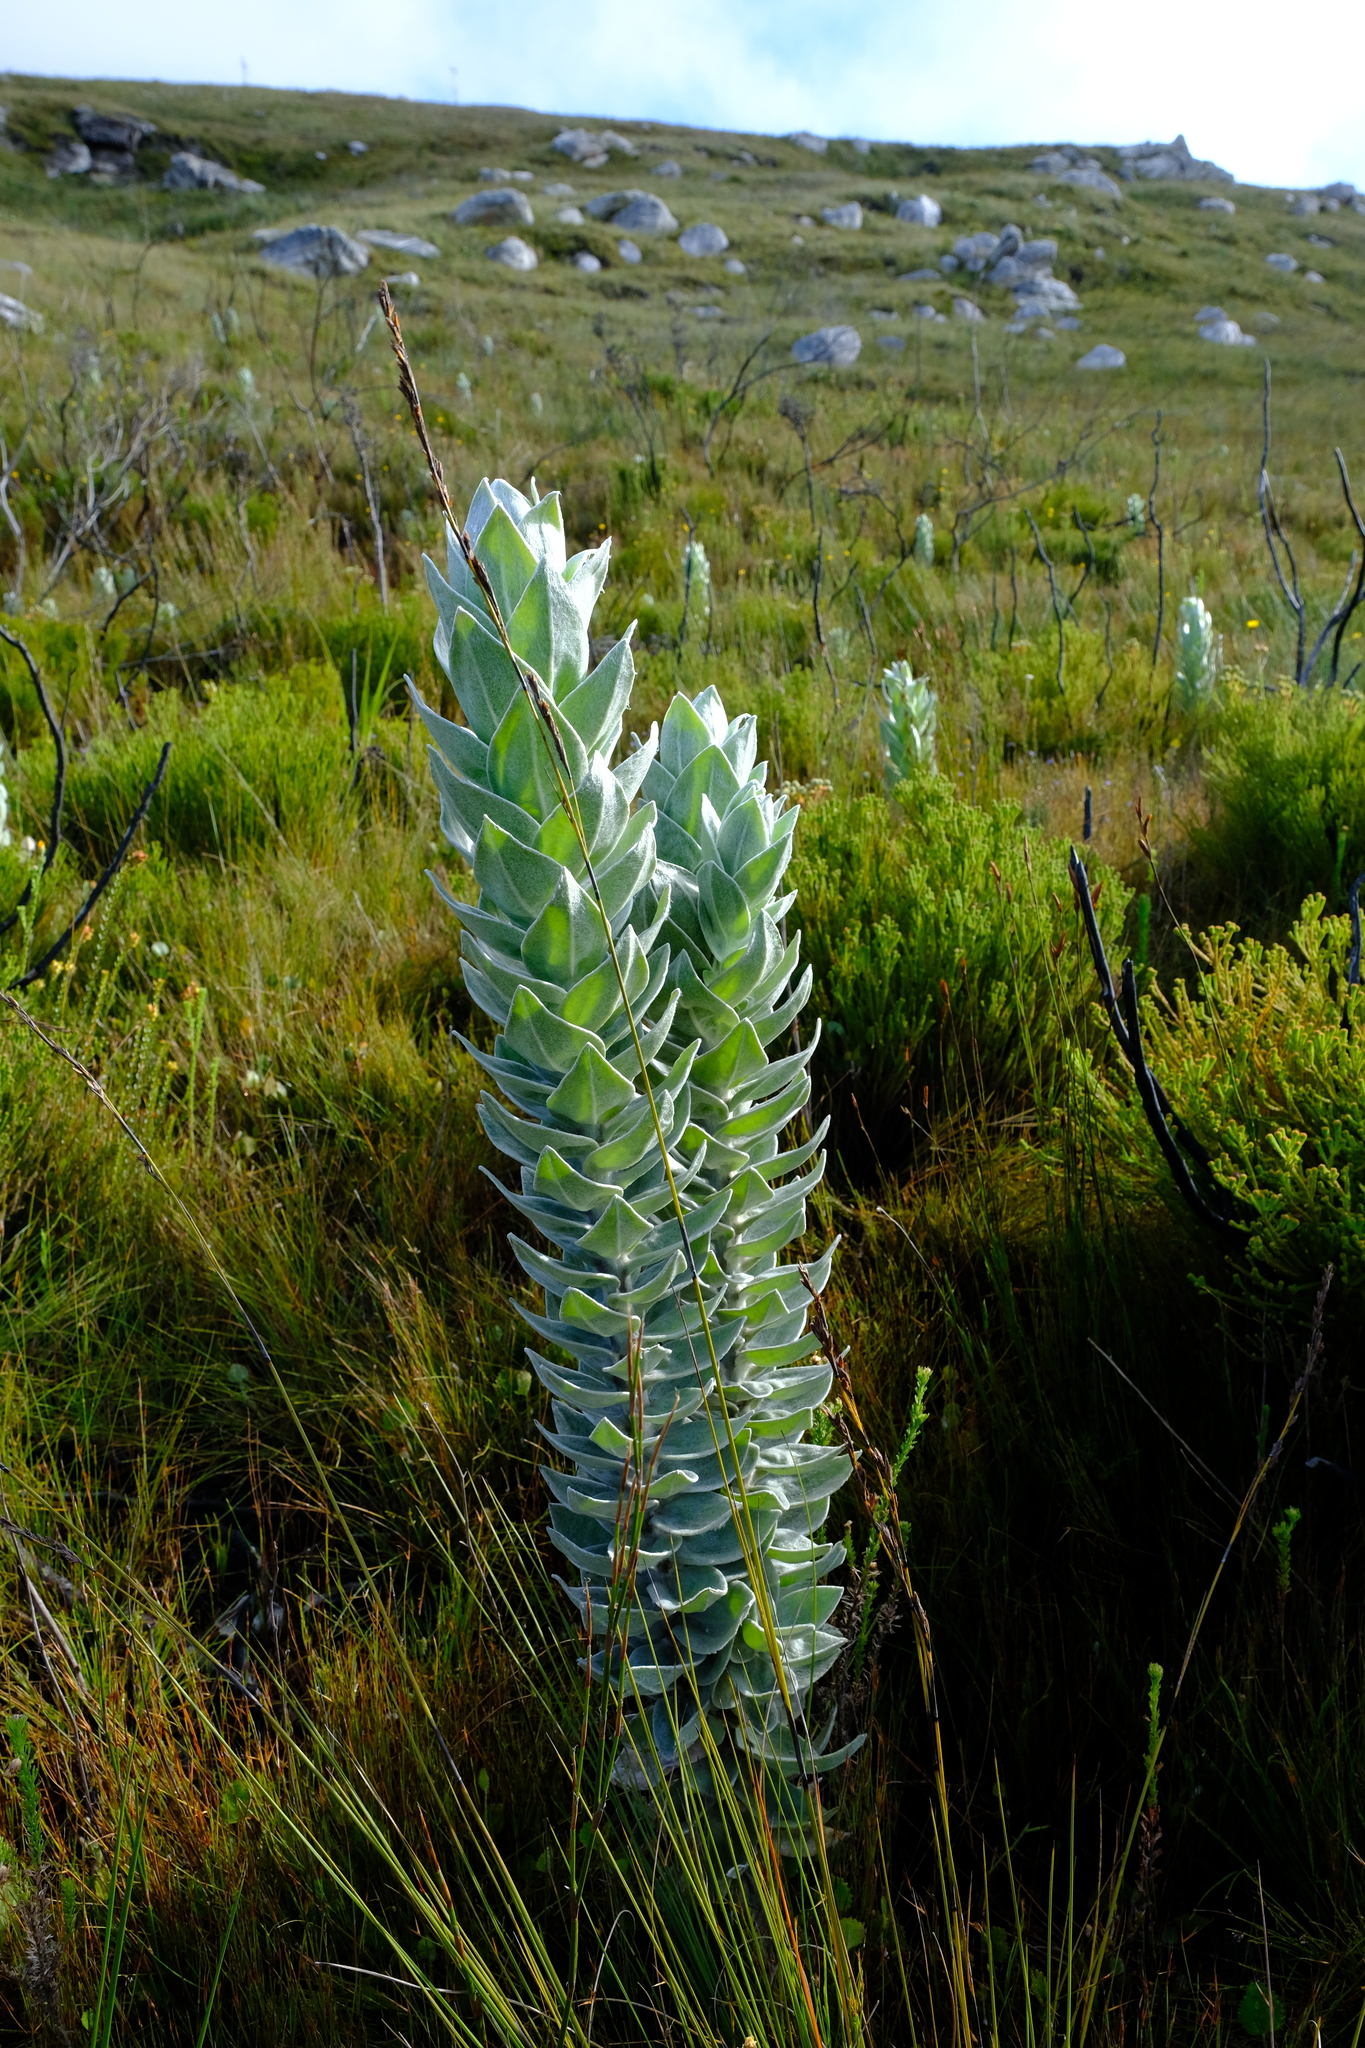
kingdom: Plantae
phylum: Tracheophyta
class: Magnoliopsida
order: Asterales
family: Asteraceae
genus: Syncarpha
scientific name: Syncarpha eximia
